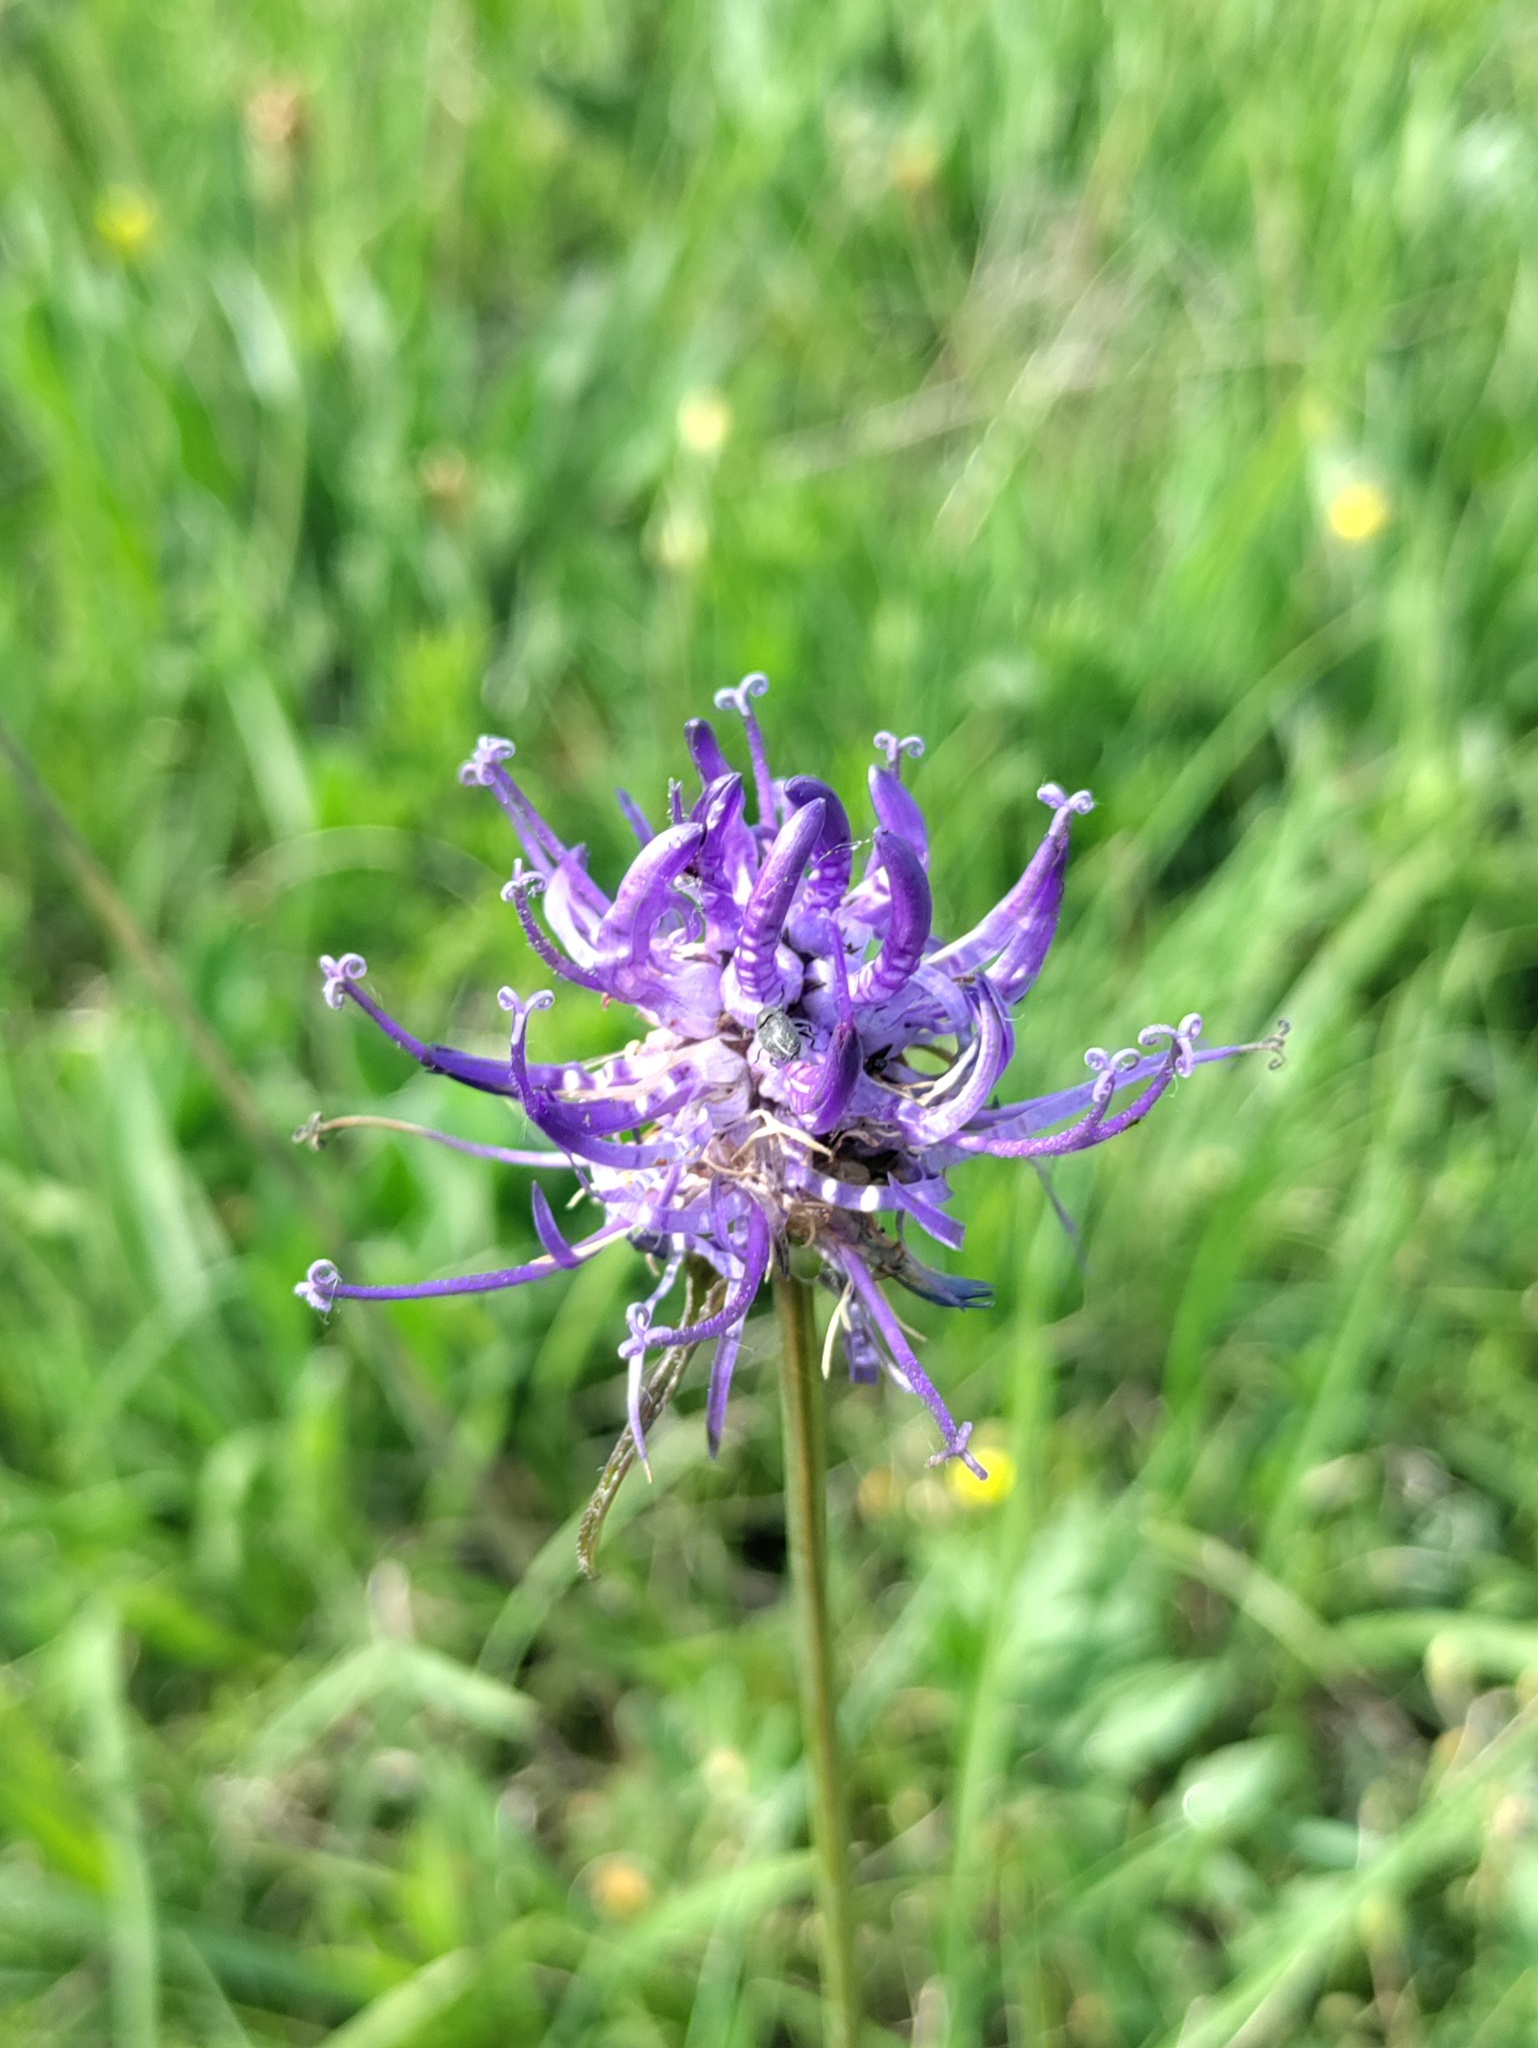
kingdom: Plantae
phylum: Tracheophyta
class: Magnoliopsida
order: Asterales
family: Campanulaceae
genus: Phyteuma
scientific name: Phyteuma orbiculare
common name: Round-headed rampion
